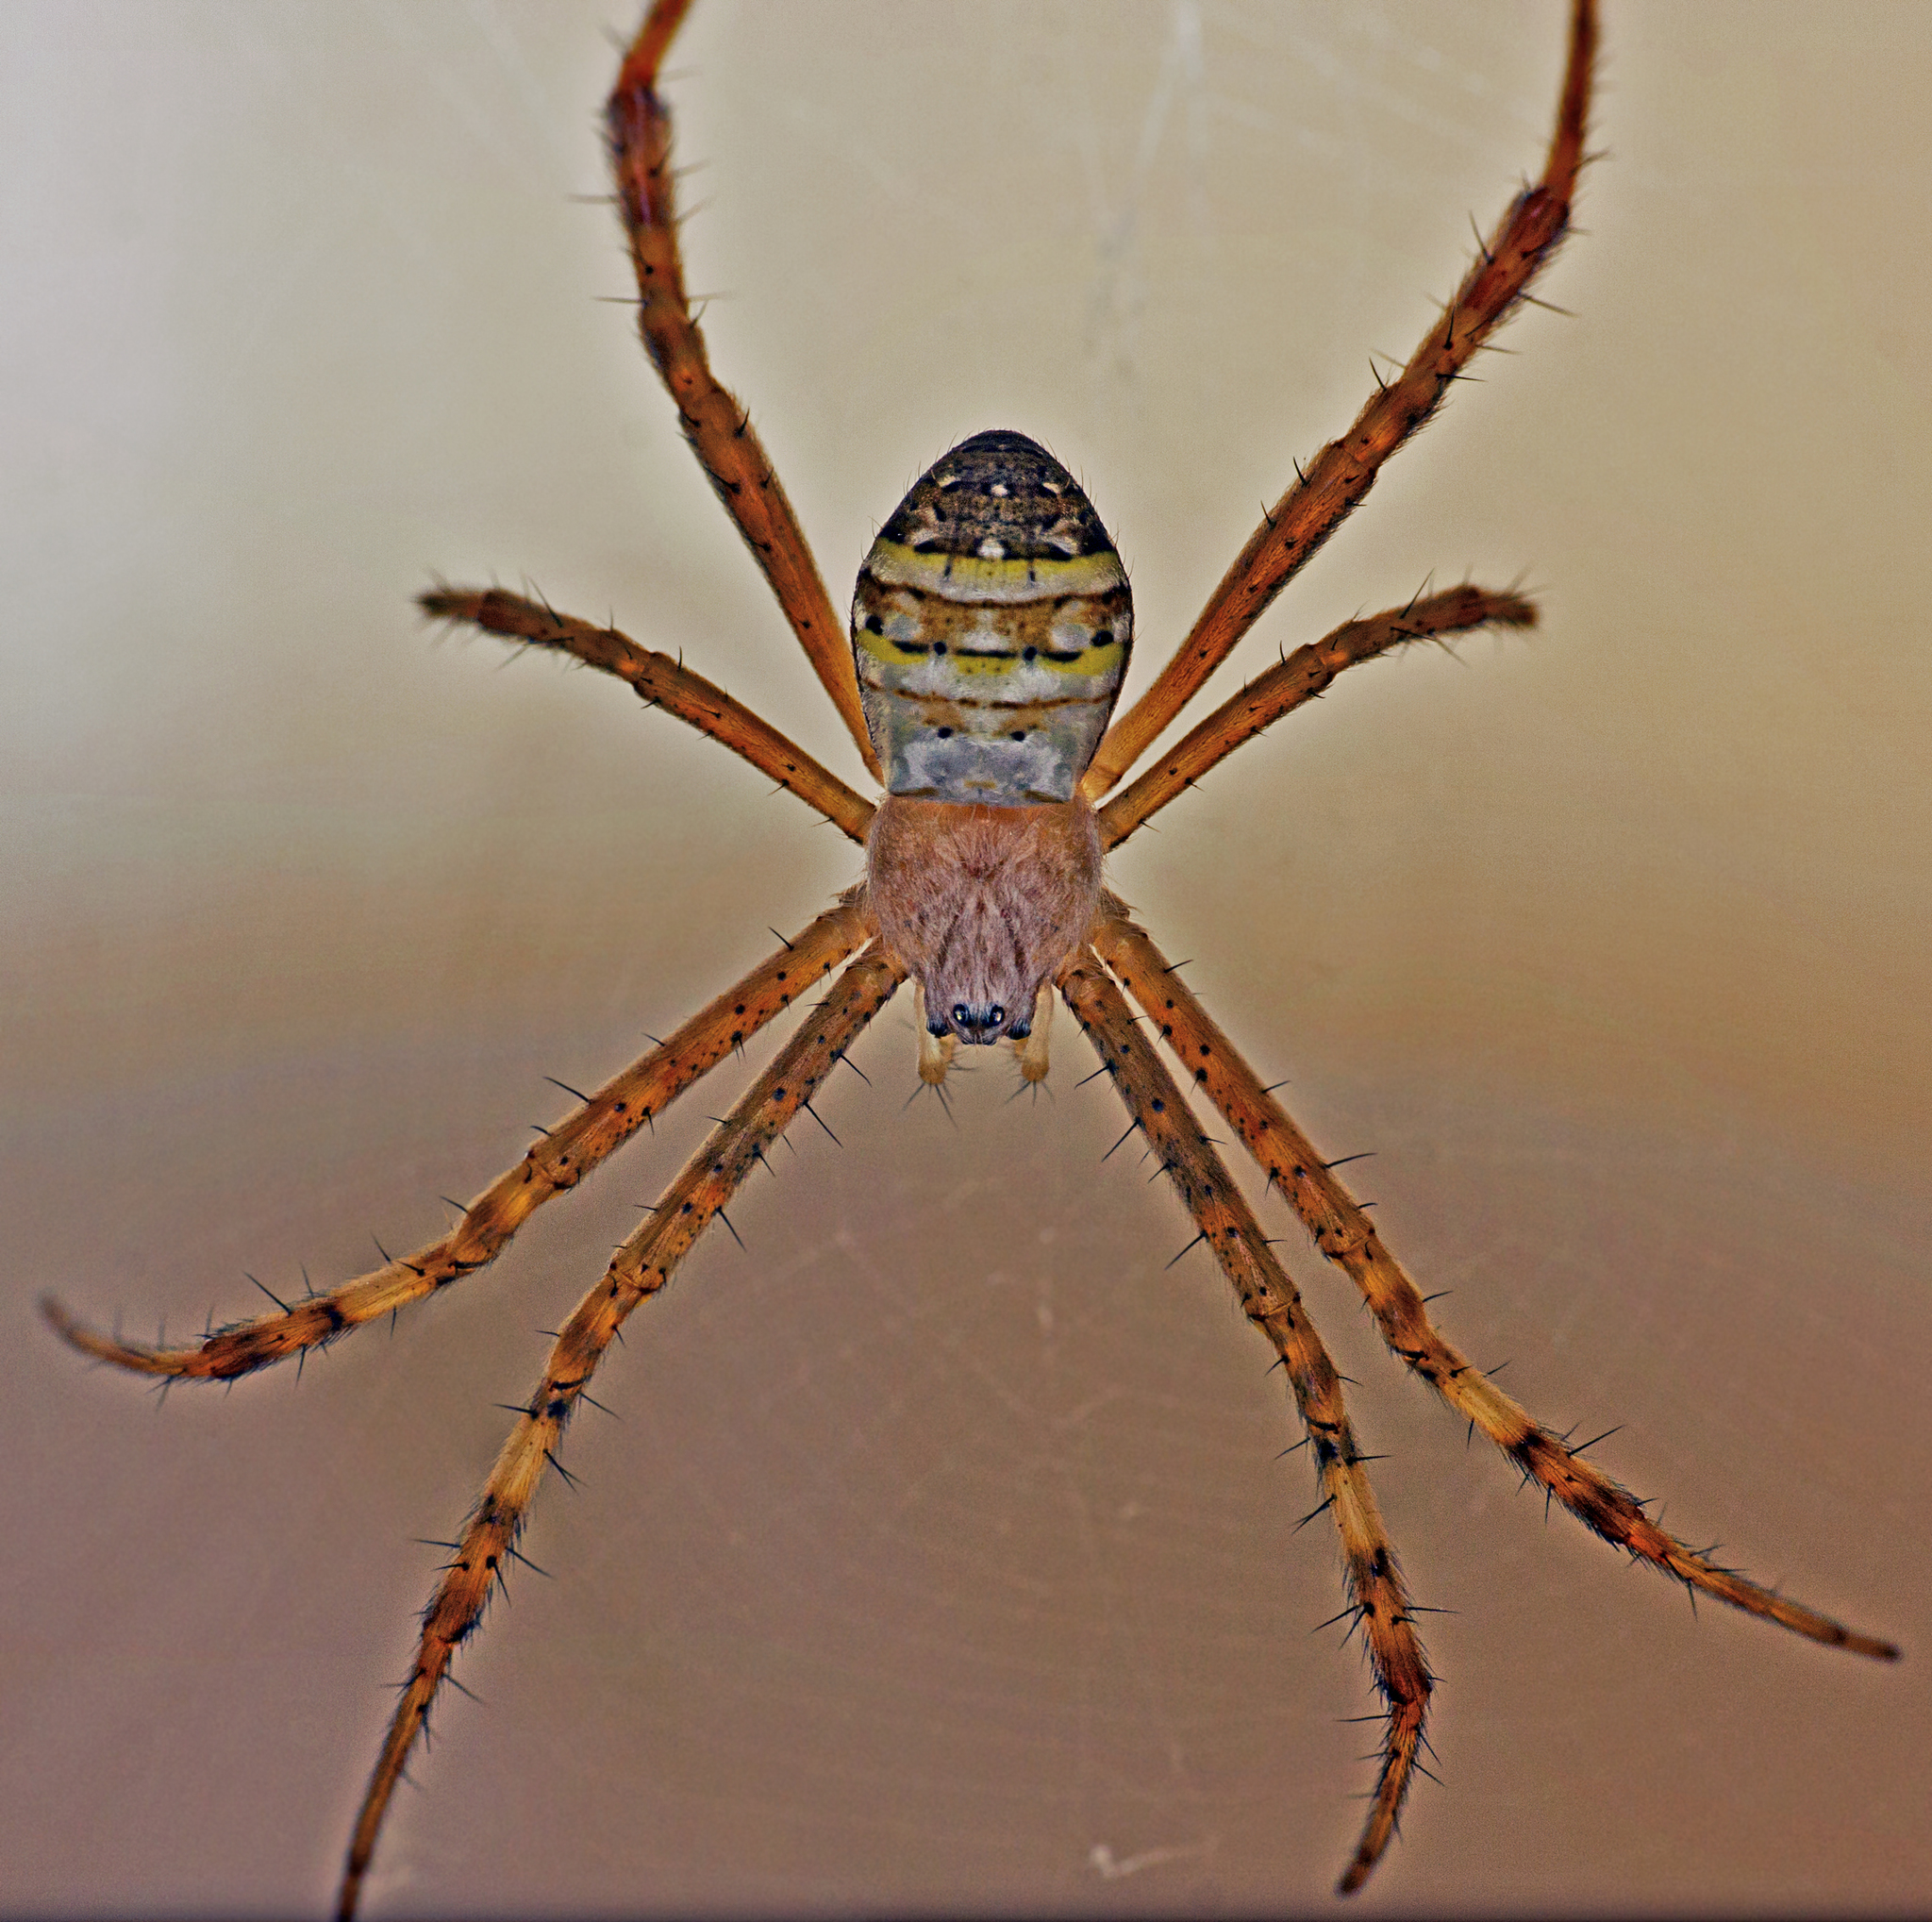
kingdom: Animalia
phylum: Arthropoda
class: Arachnida
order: Araneae
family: Araneidae
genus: Argiope
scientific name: Argiope keyserlingi
